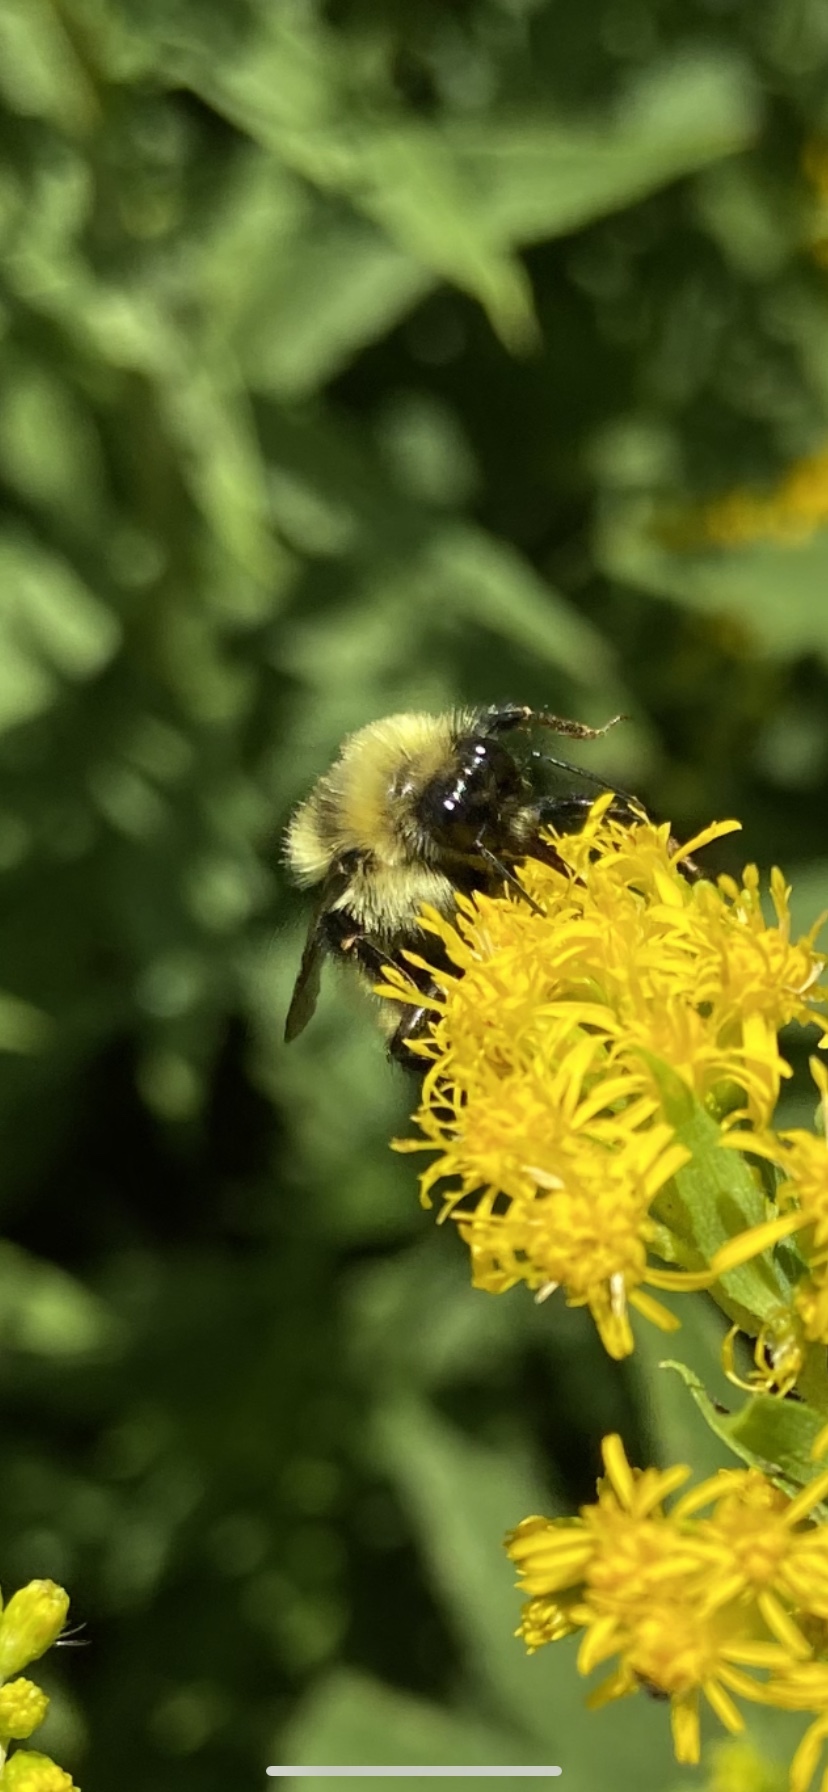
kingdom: Animalia
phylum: Arthropoda
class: Insecta
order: Hymenoptera
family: Apidae
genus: Bombus
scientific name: Bombus rufocinctus
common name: Red-belted bumble bee
